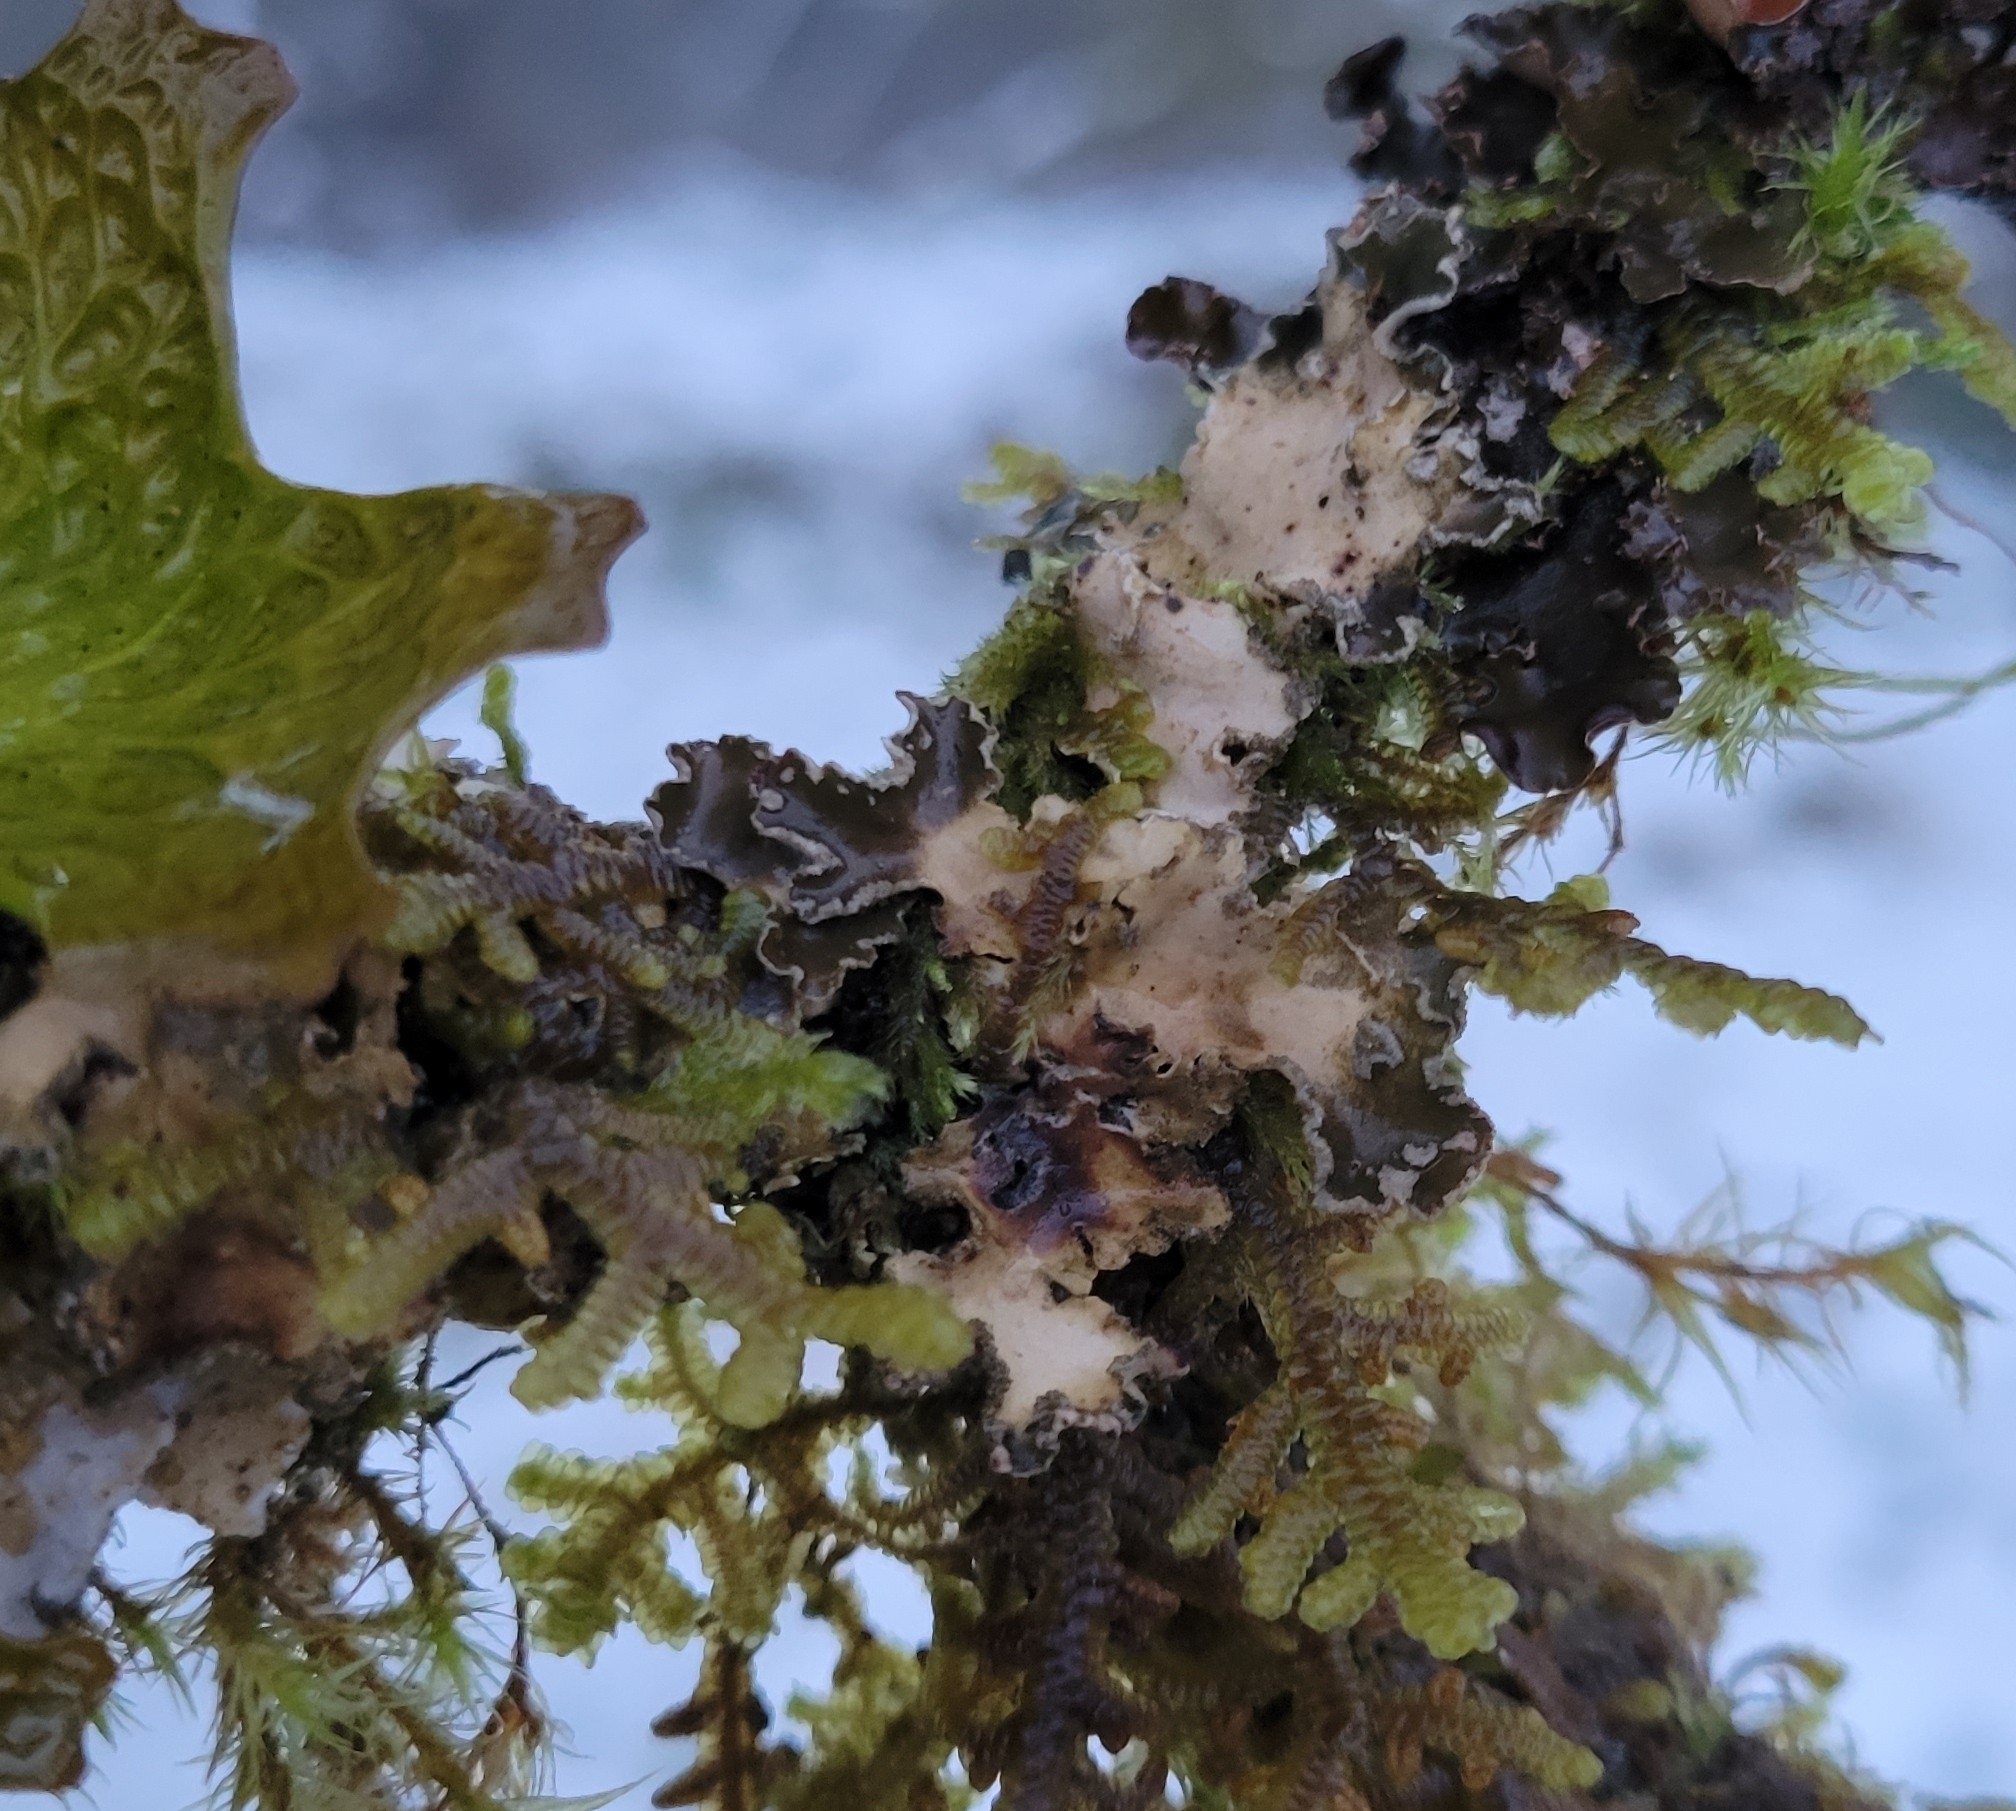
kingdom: Fungi
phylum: Ascomycota
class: Lecanoromycetes
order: Peltigerales
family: Peltigeraceae
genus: Peltigera
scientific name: Peltigera collina
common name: Gritty tree pelt lichen
